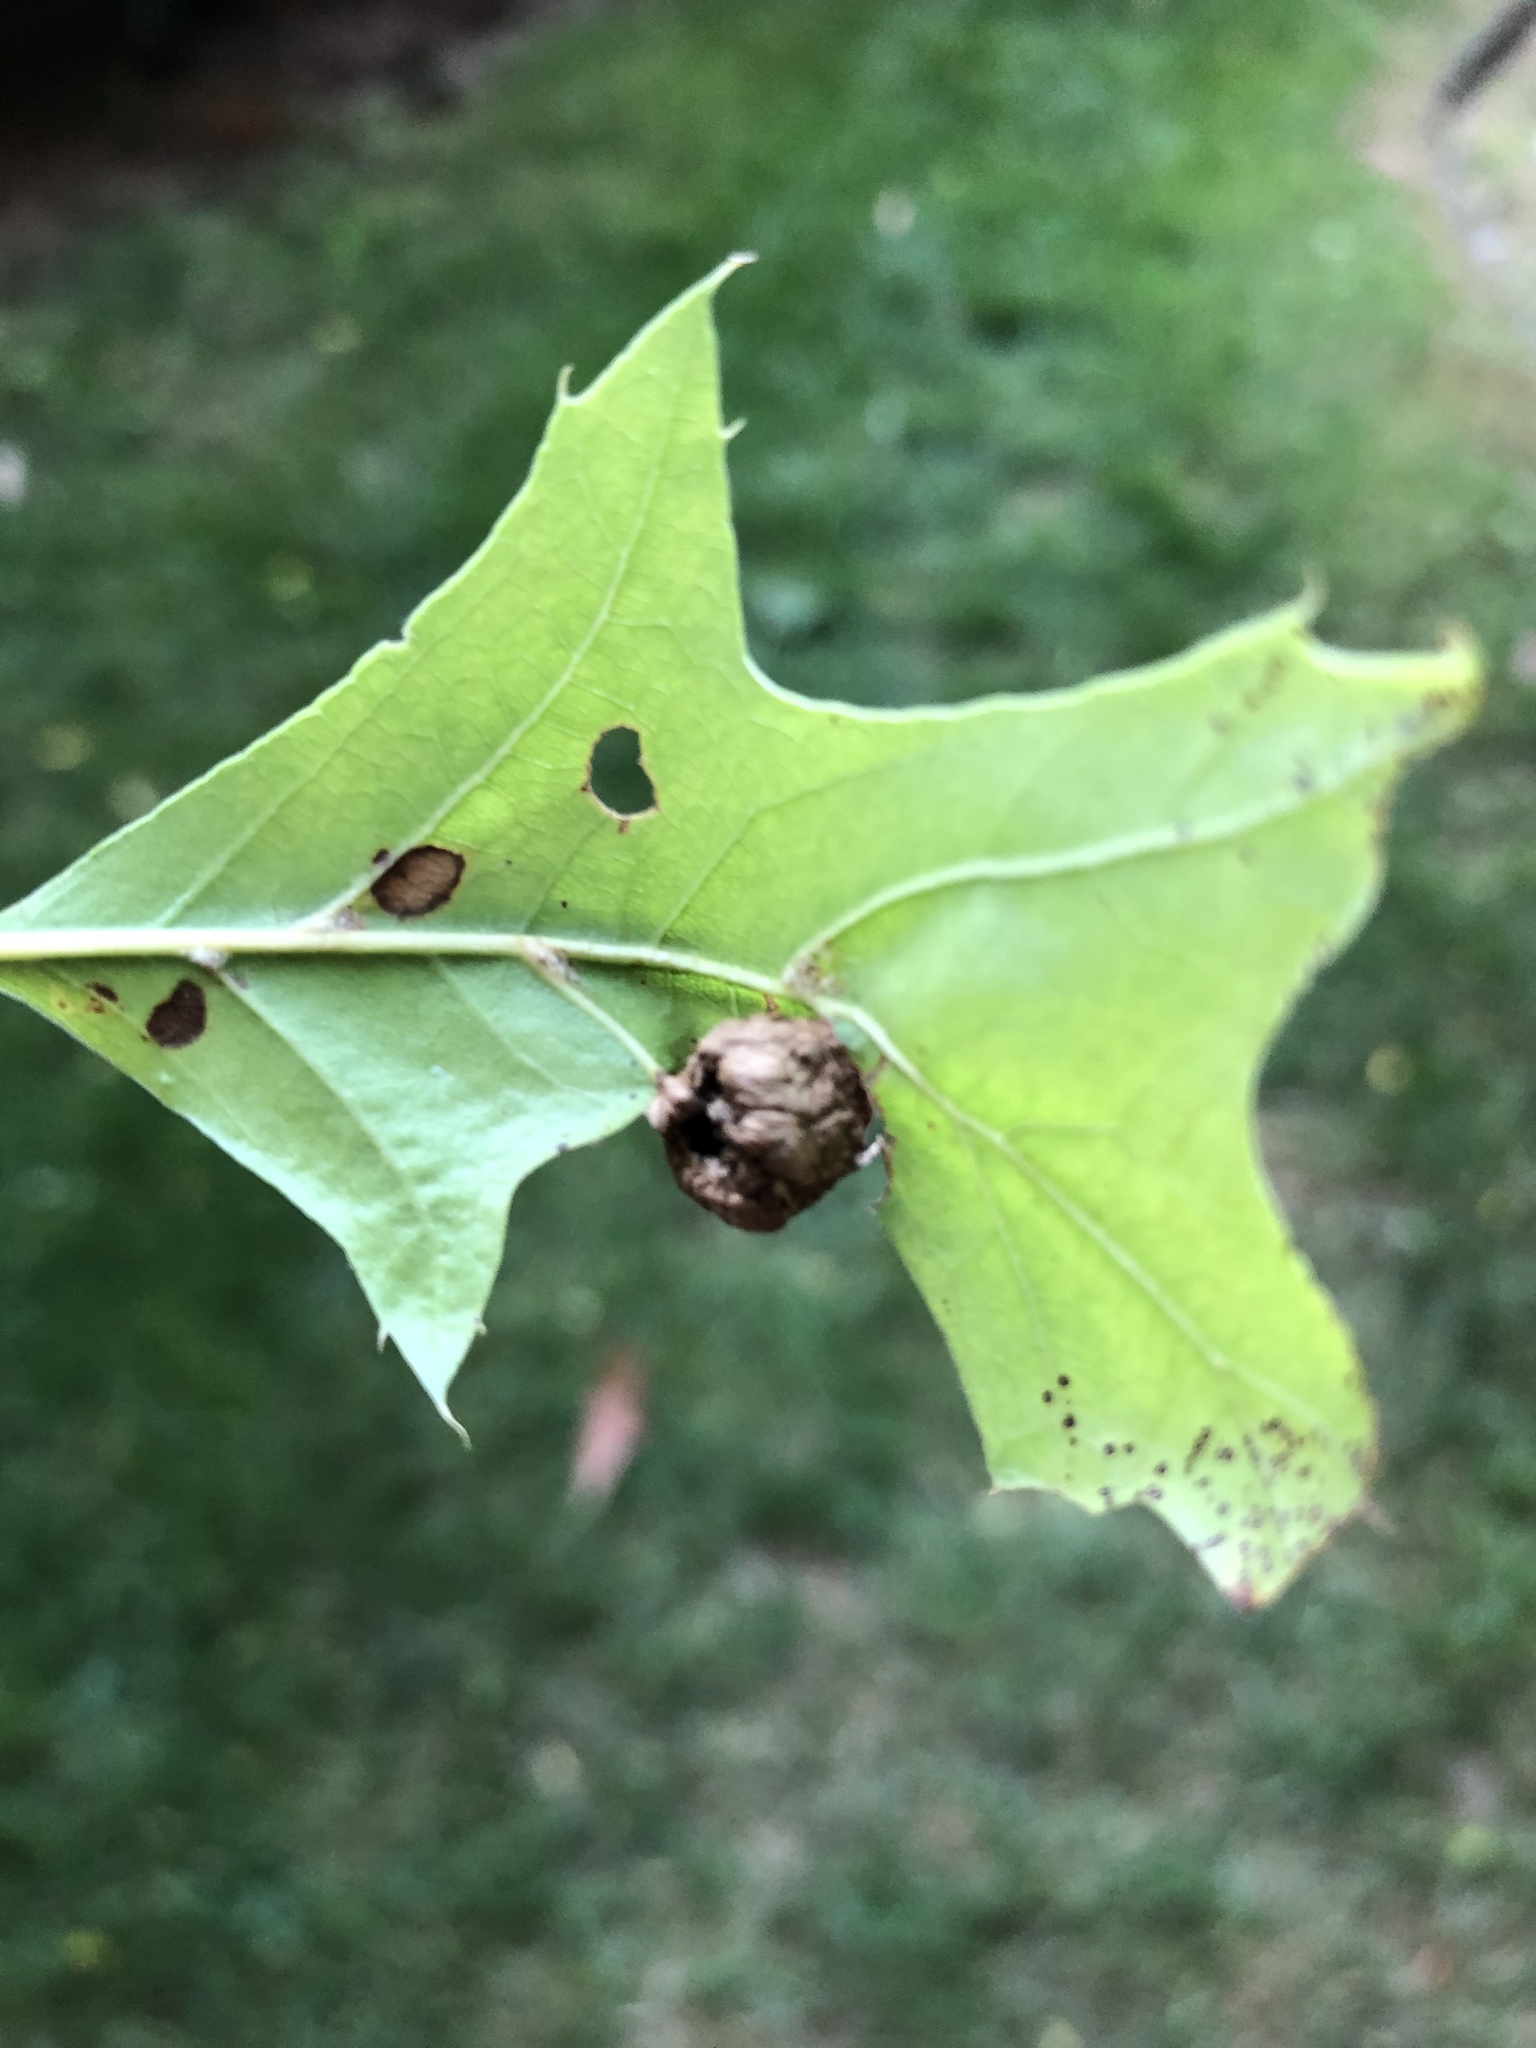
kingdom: Animalia
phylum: Arthropoda
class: Insecta
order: Hymenoptera
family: Cynipidae
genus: Dryocosmus
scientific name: Dryocosmus quercuspalustris
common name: Succulent oak gall wasp
